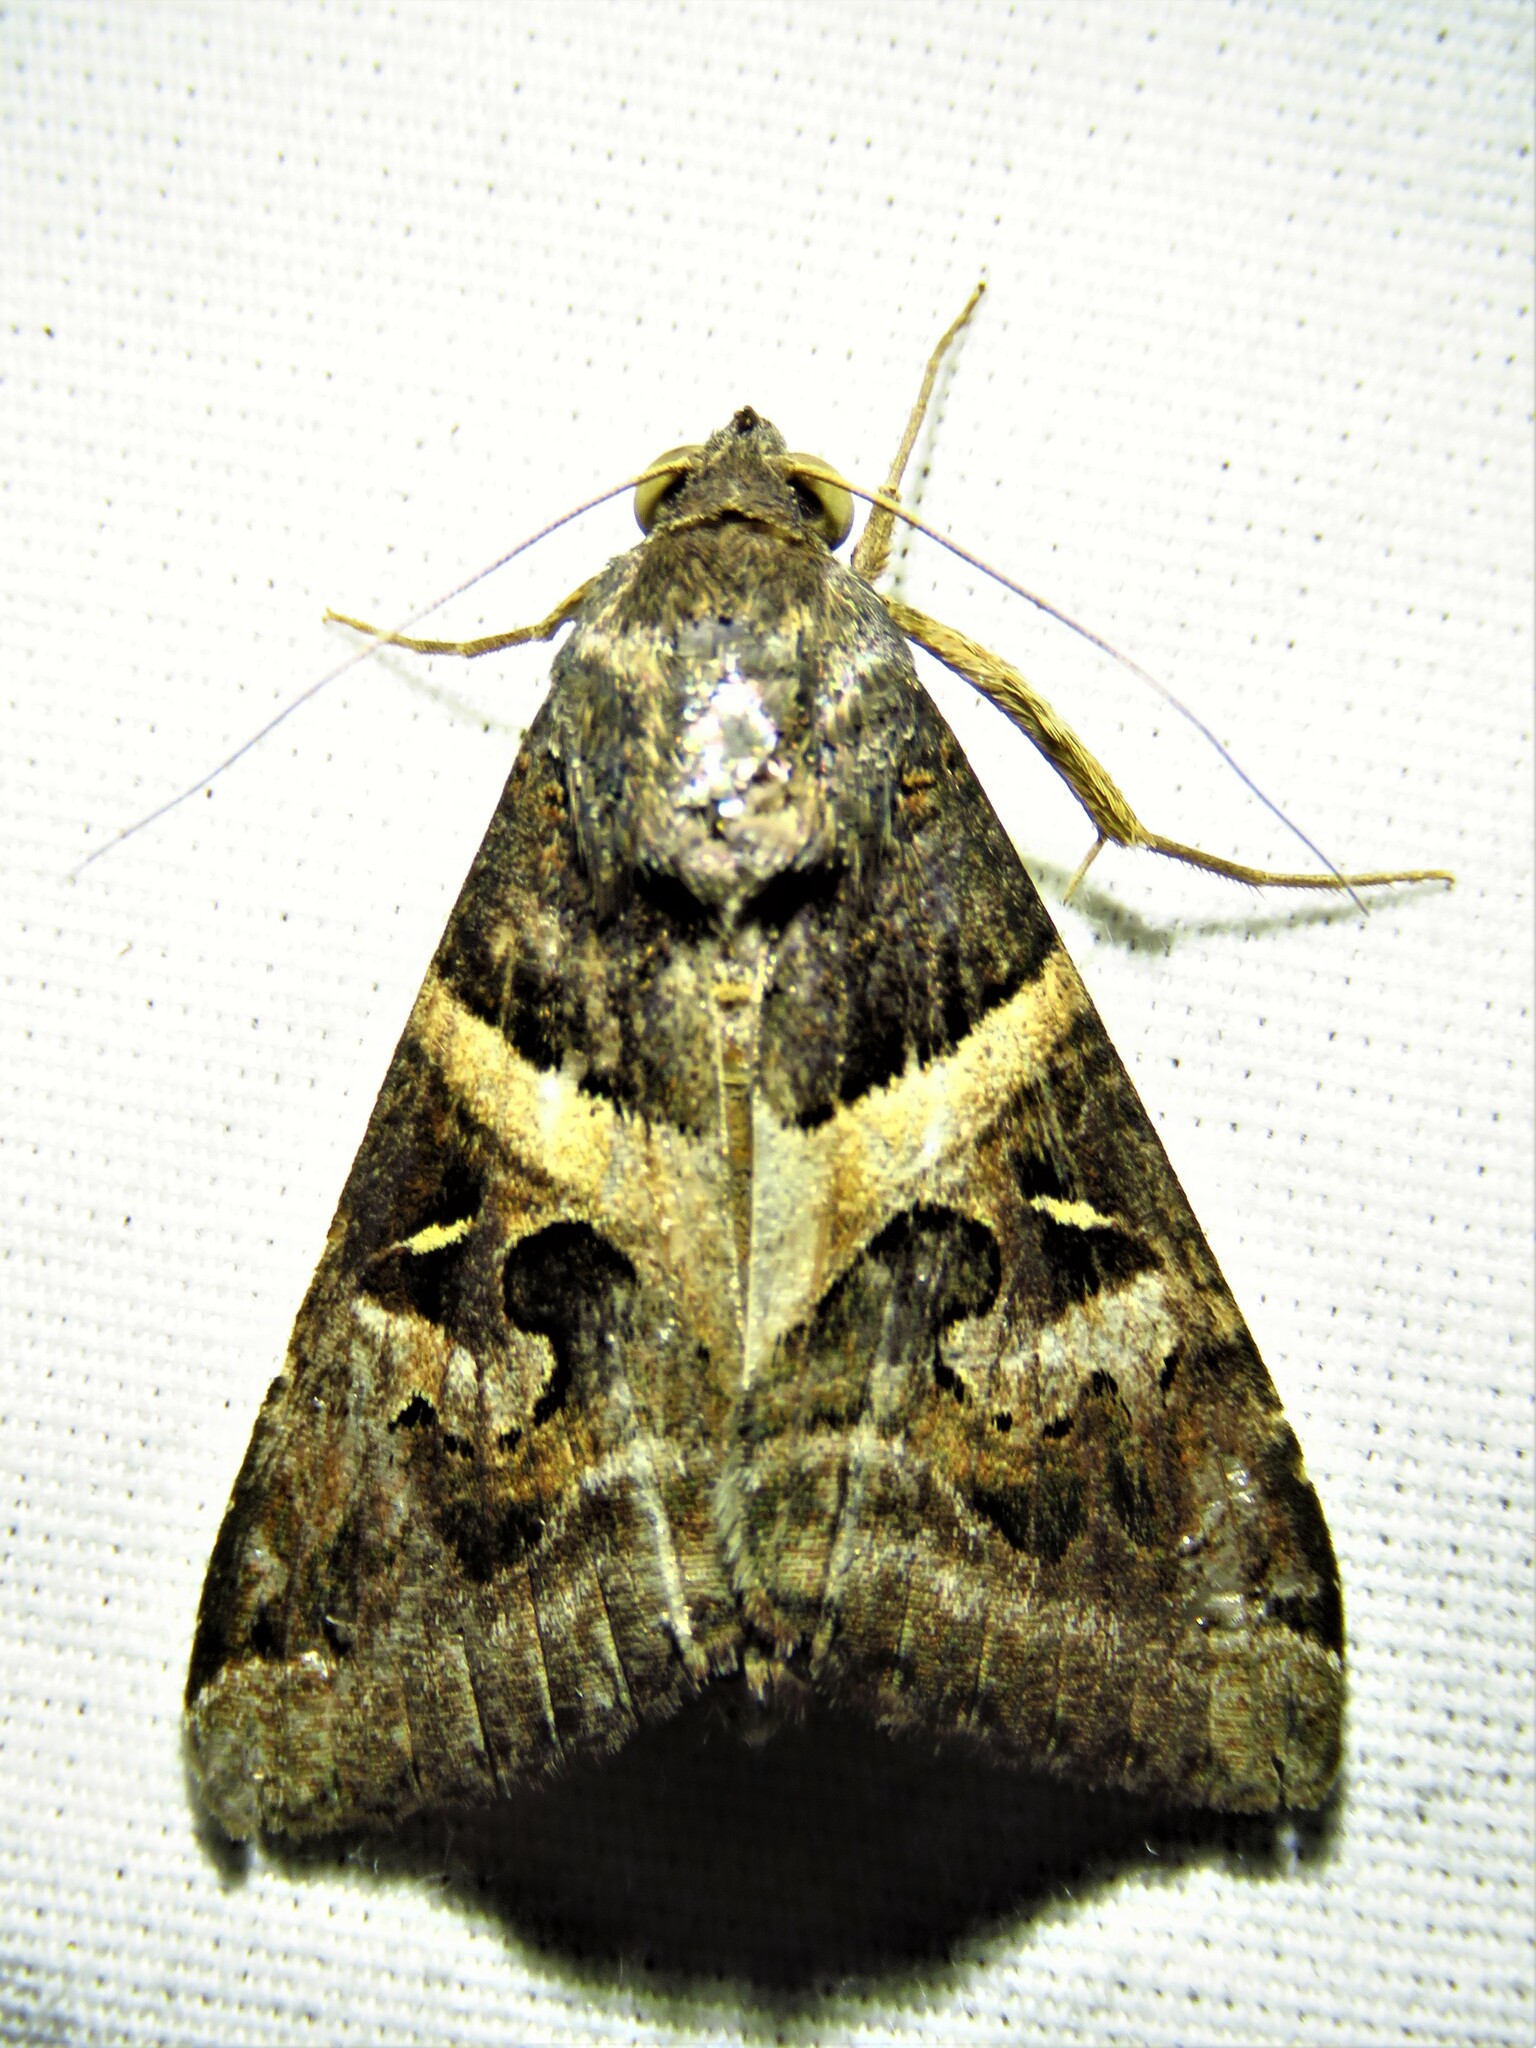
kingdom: Animalia
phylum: Arthropoda
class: Insecta
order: Lepidoptera
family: Erebidae
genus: Melipotis
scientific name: Melipotis indomita
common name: Moth
